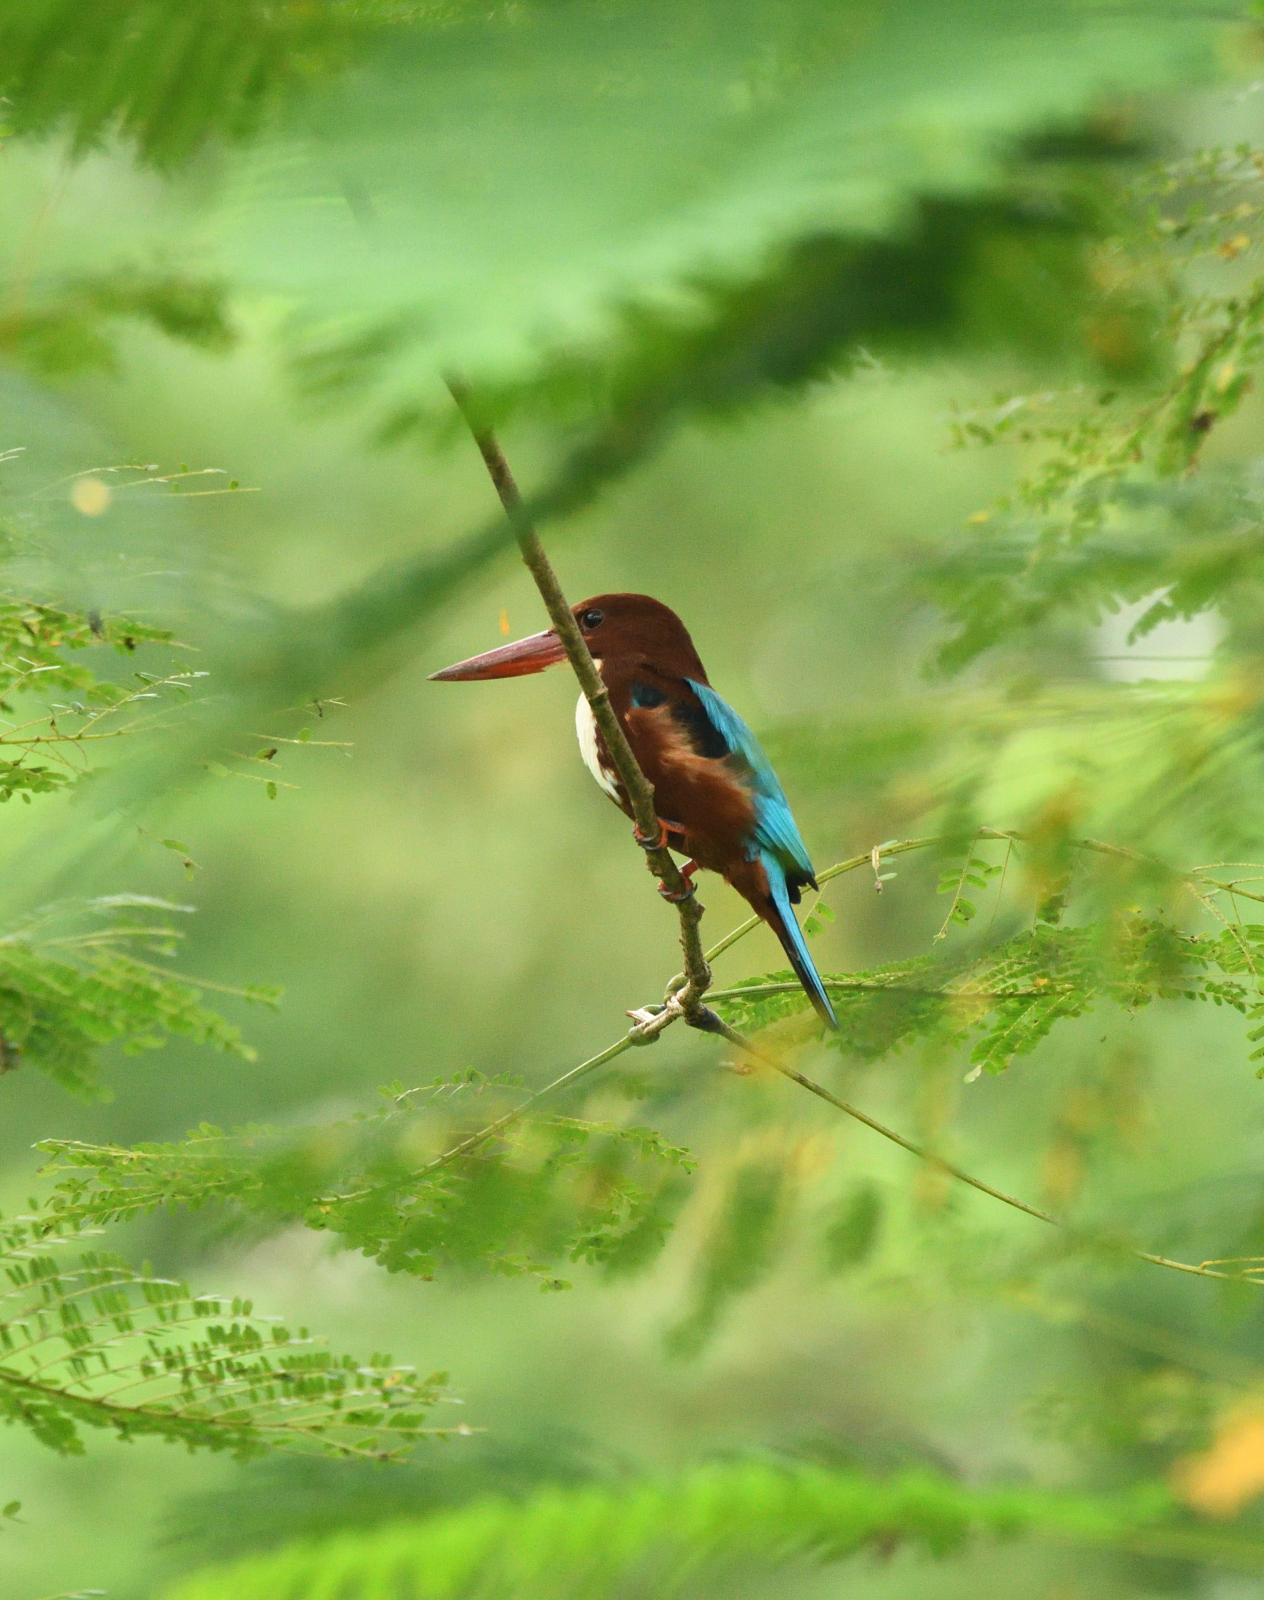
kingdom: Animalia
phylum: Chordata
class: Aves
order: Coraciiformes
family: Alcedinidae
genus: Halcyon
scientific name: Halcyon smyrnensis
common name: White-throated kingfisher
